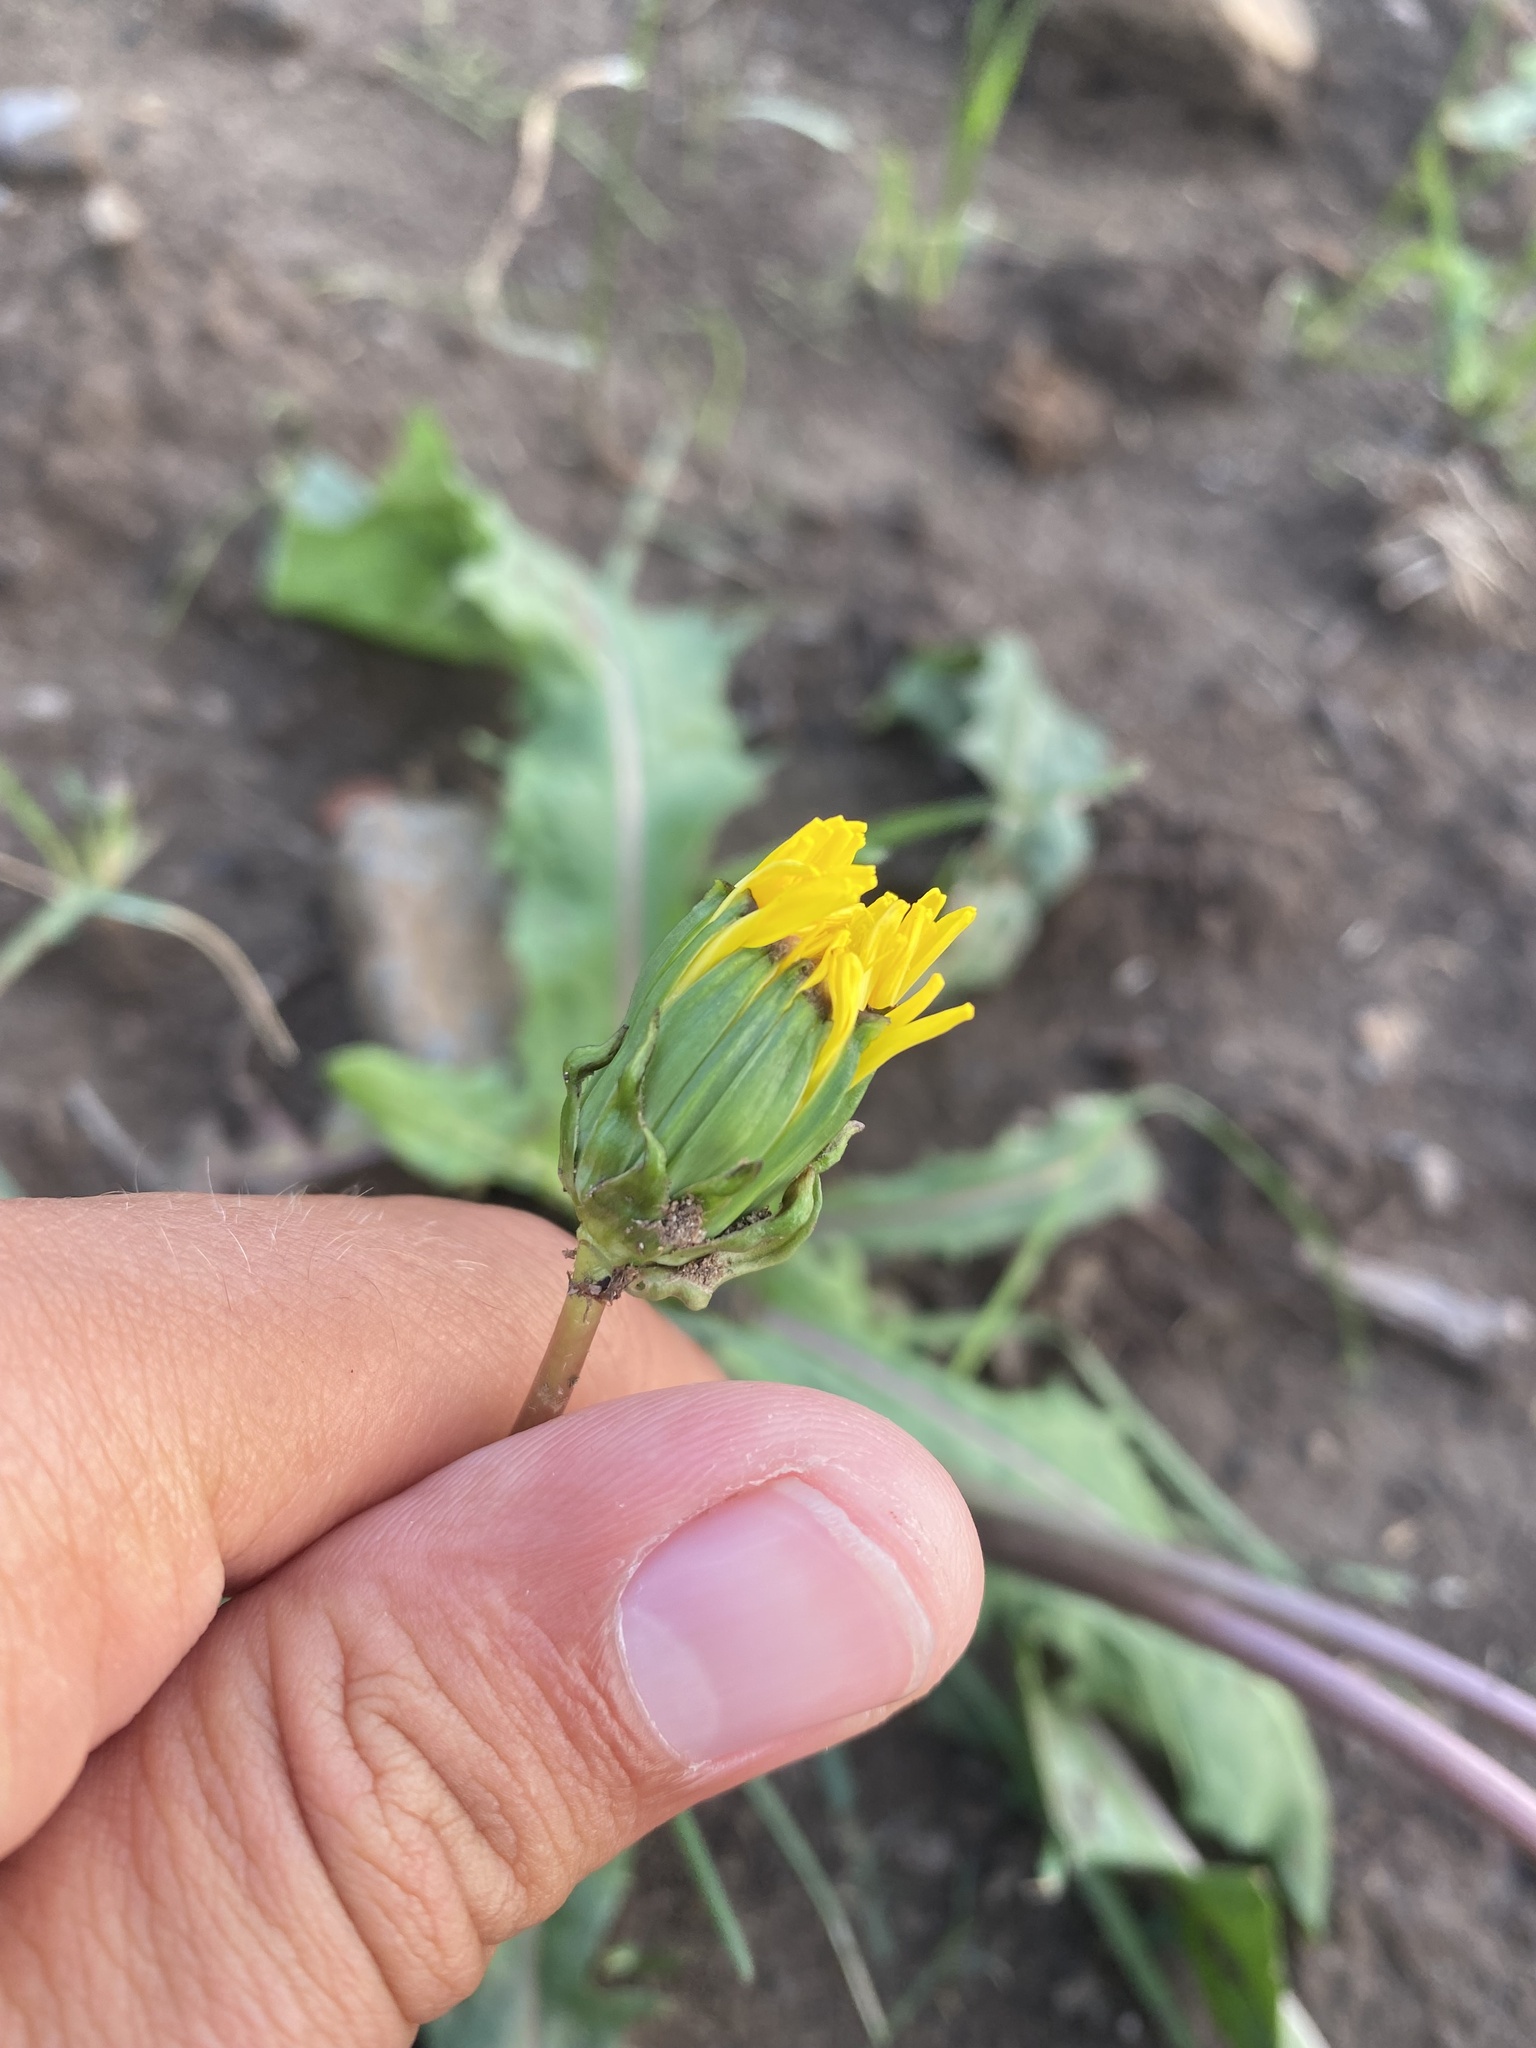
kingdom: Plantae
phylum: Tracheophyta
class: Magnoliopsida
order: Asterales
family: Asteraceae
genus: Taraxacum
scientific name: Taraxacum ceratophorum
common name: Horn-bearing dandelion
